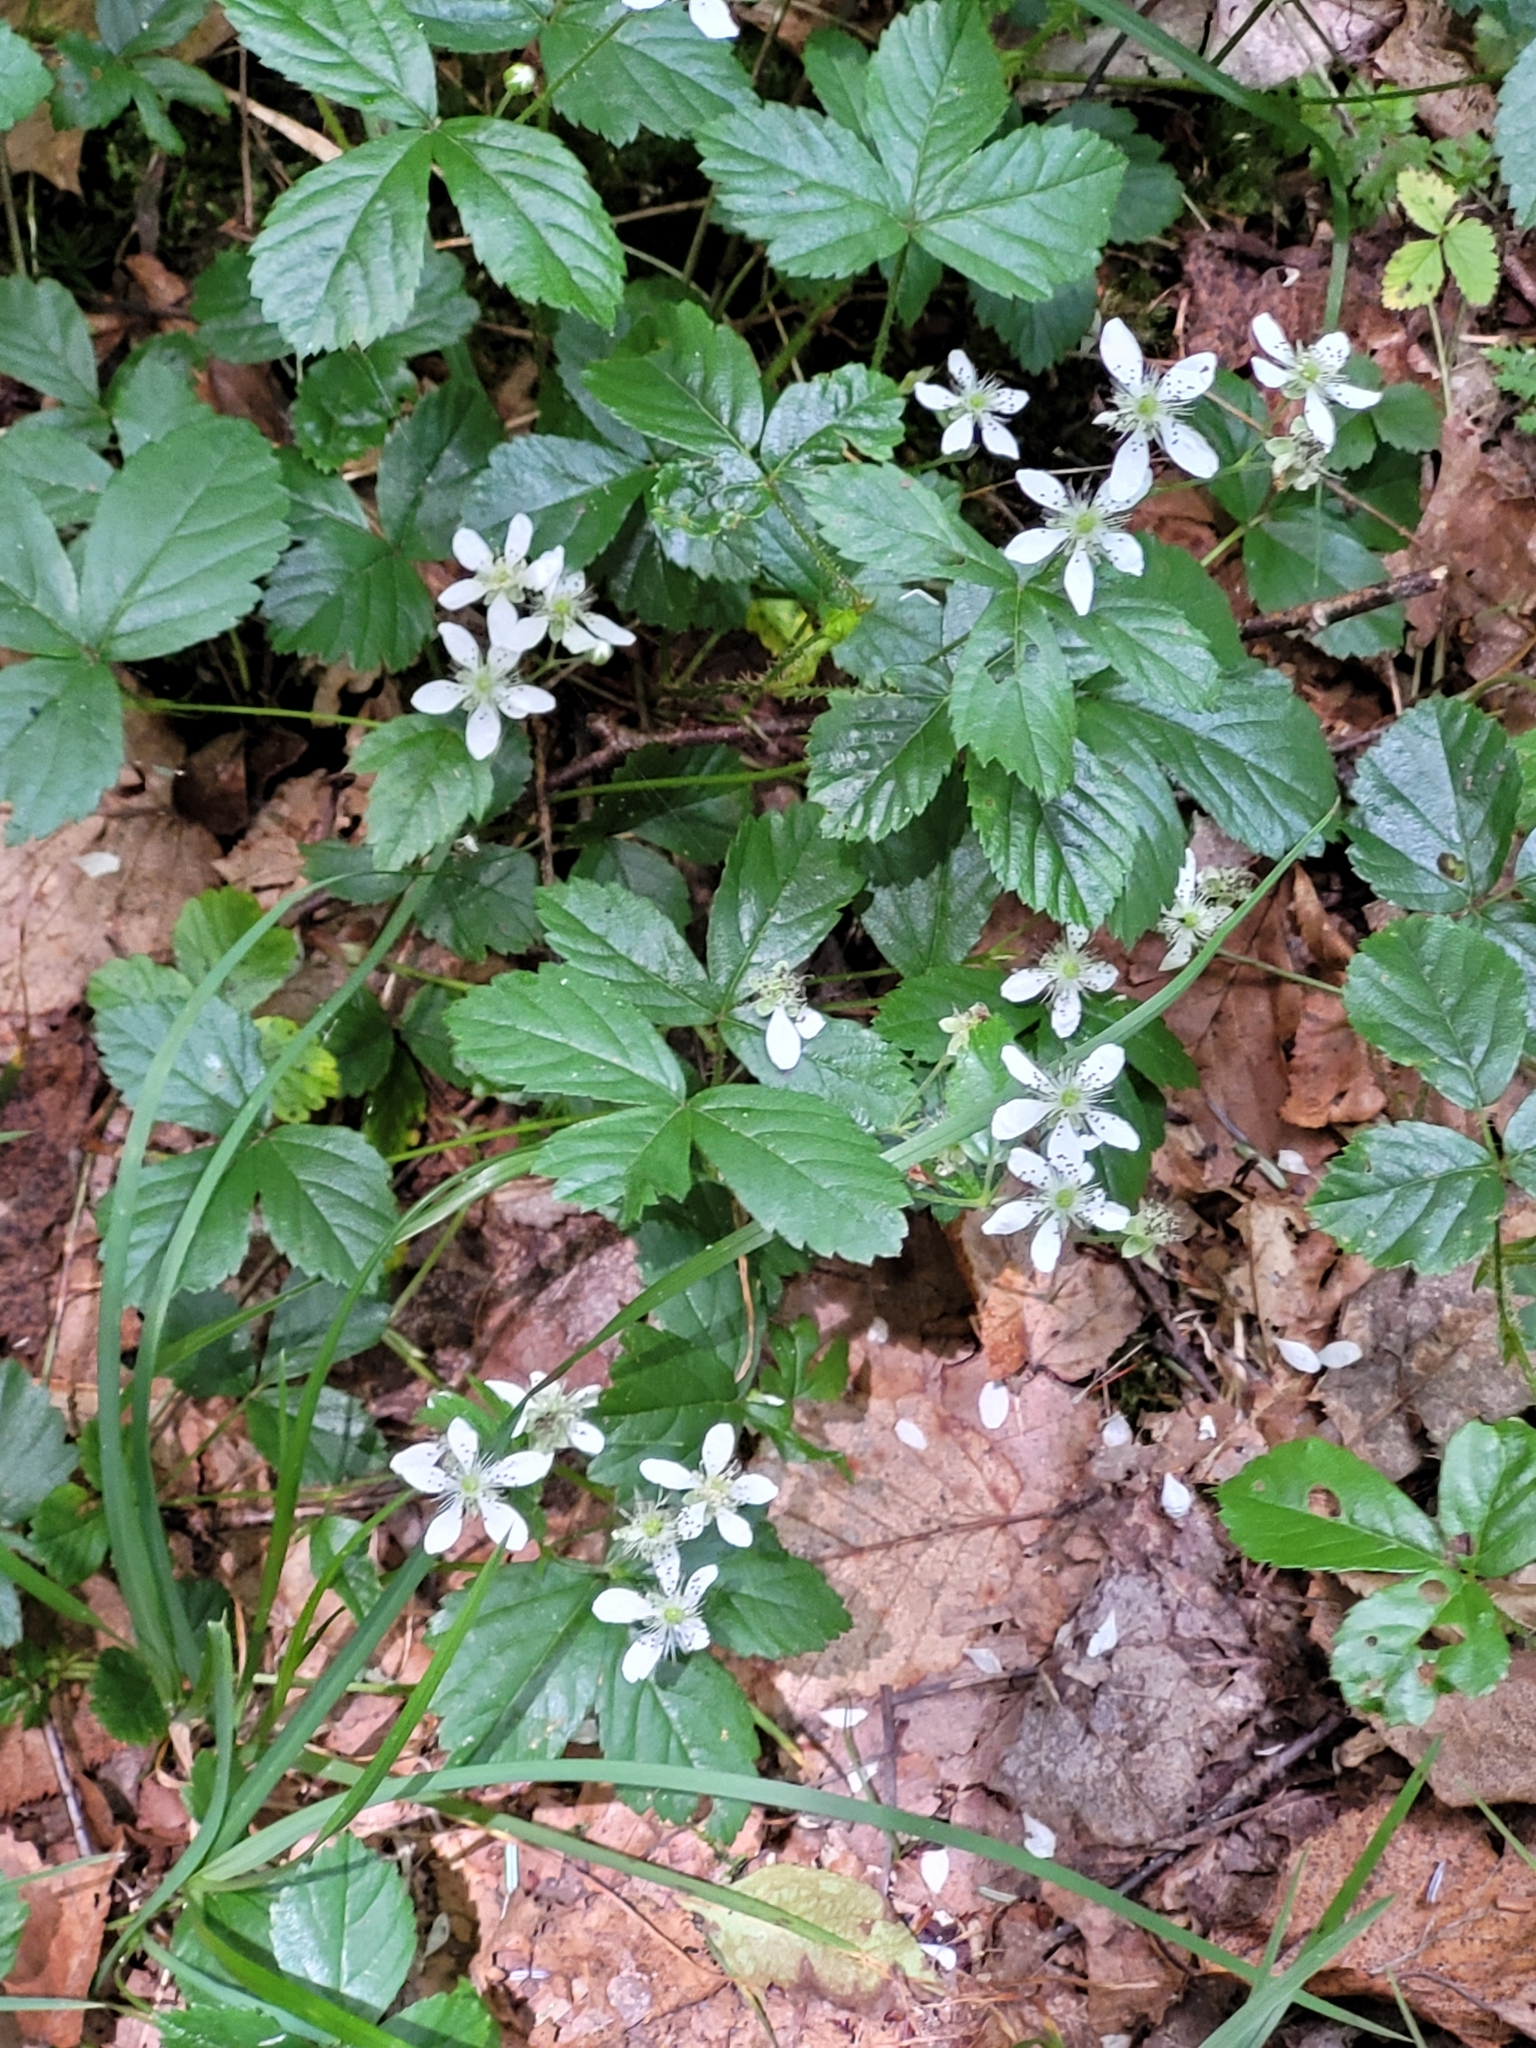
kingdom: Plantae
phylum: Tracheophyta
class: Magnoliopsida
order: Rosales
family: Rosaceae
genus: Rubus
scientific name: Rubus hispidus
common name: Running blackberry
